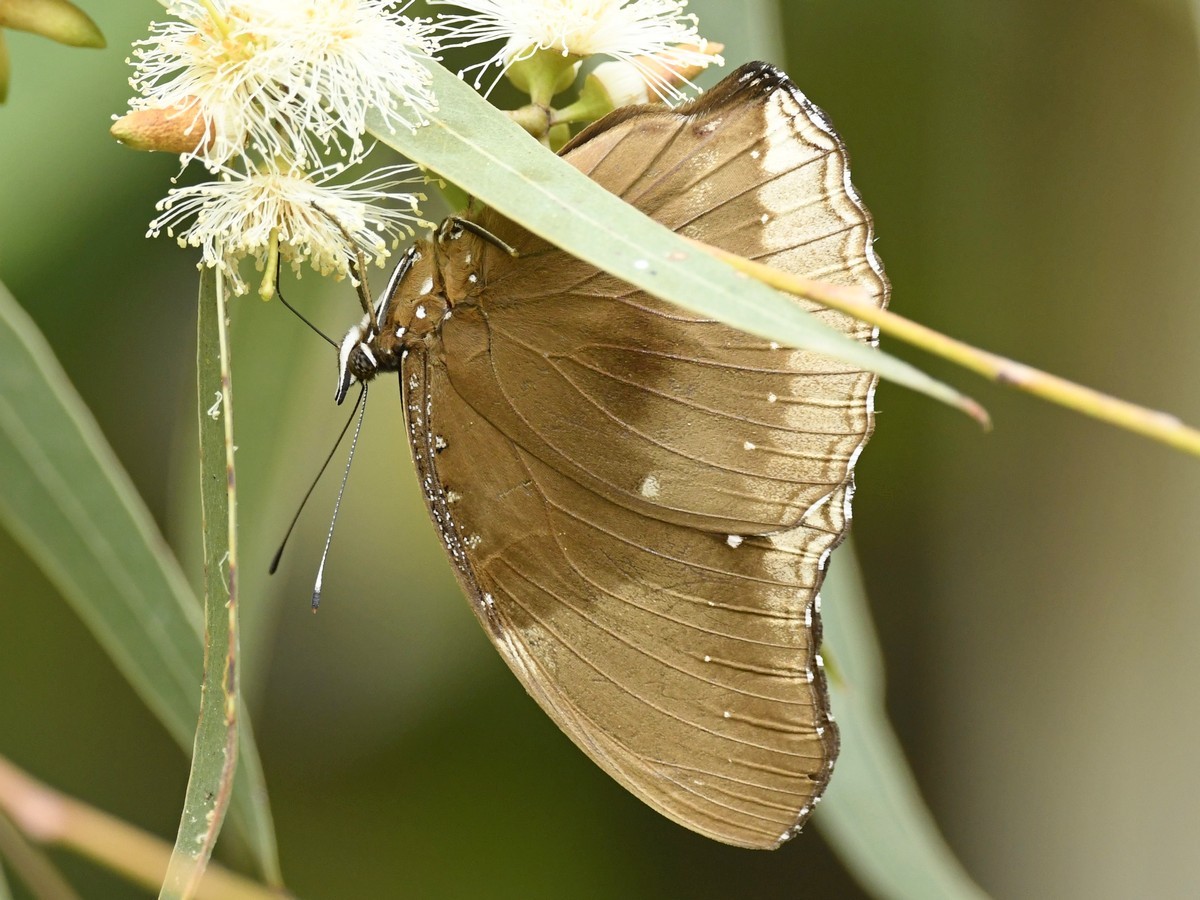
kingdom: Animalia
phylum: Arthropoda
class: Insecta
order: Lepidoptera
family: Nymphalidae
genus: Hypolimnas
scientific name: Hypolimnas bolina
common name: Great eggfly
